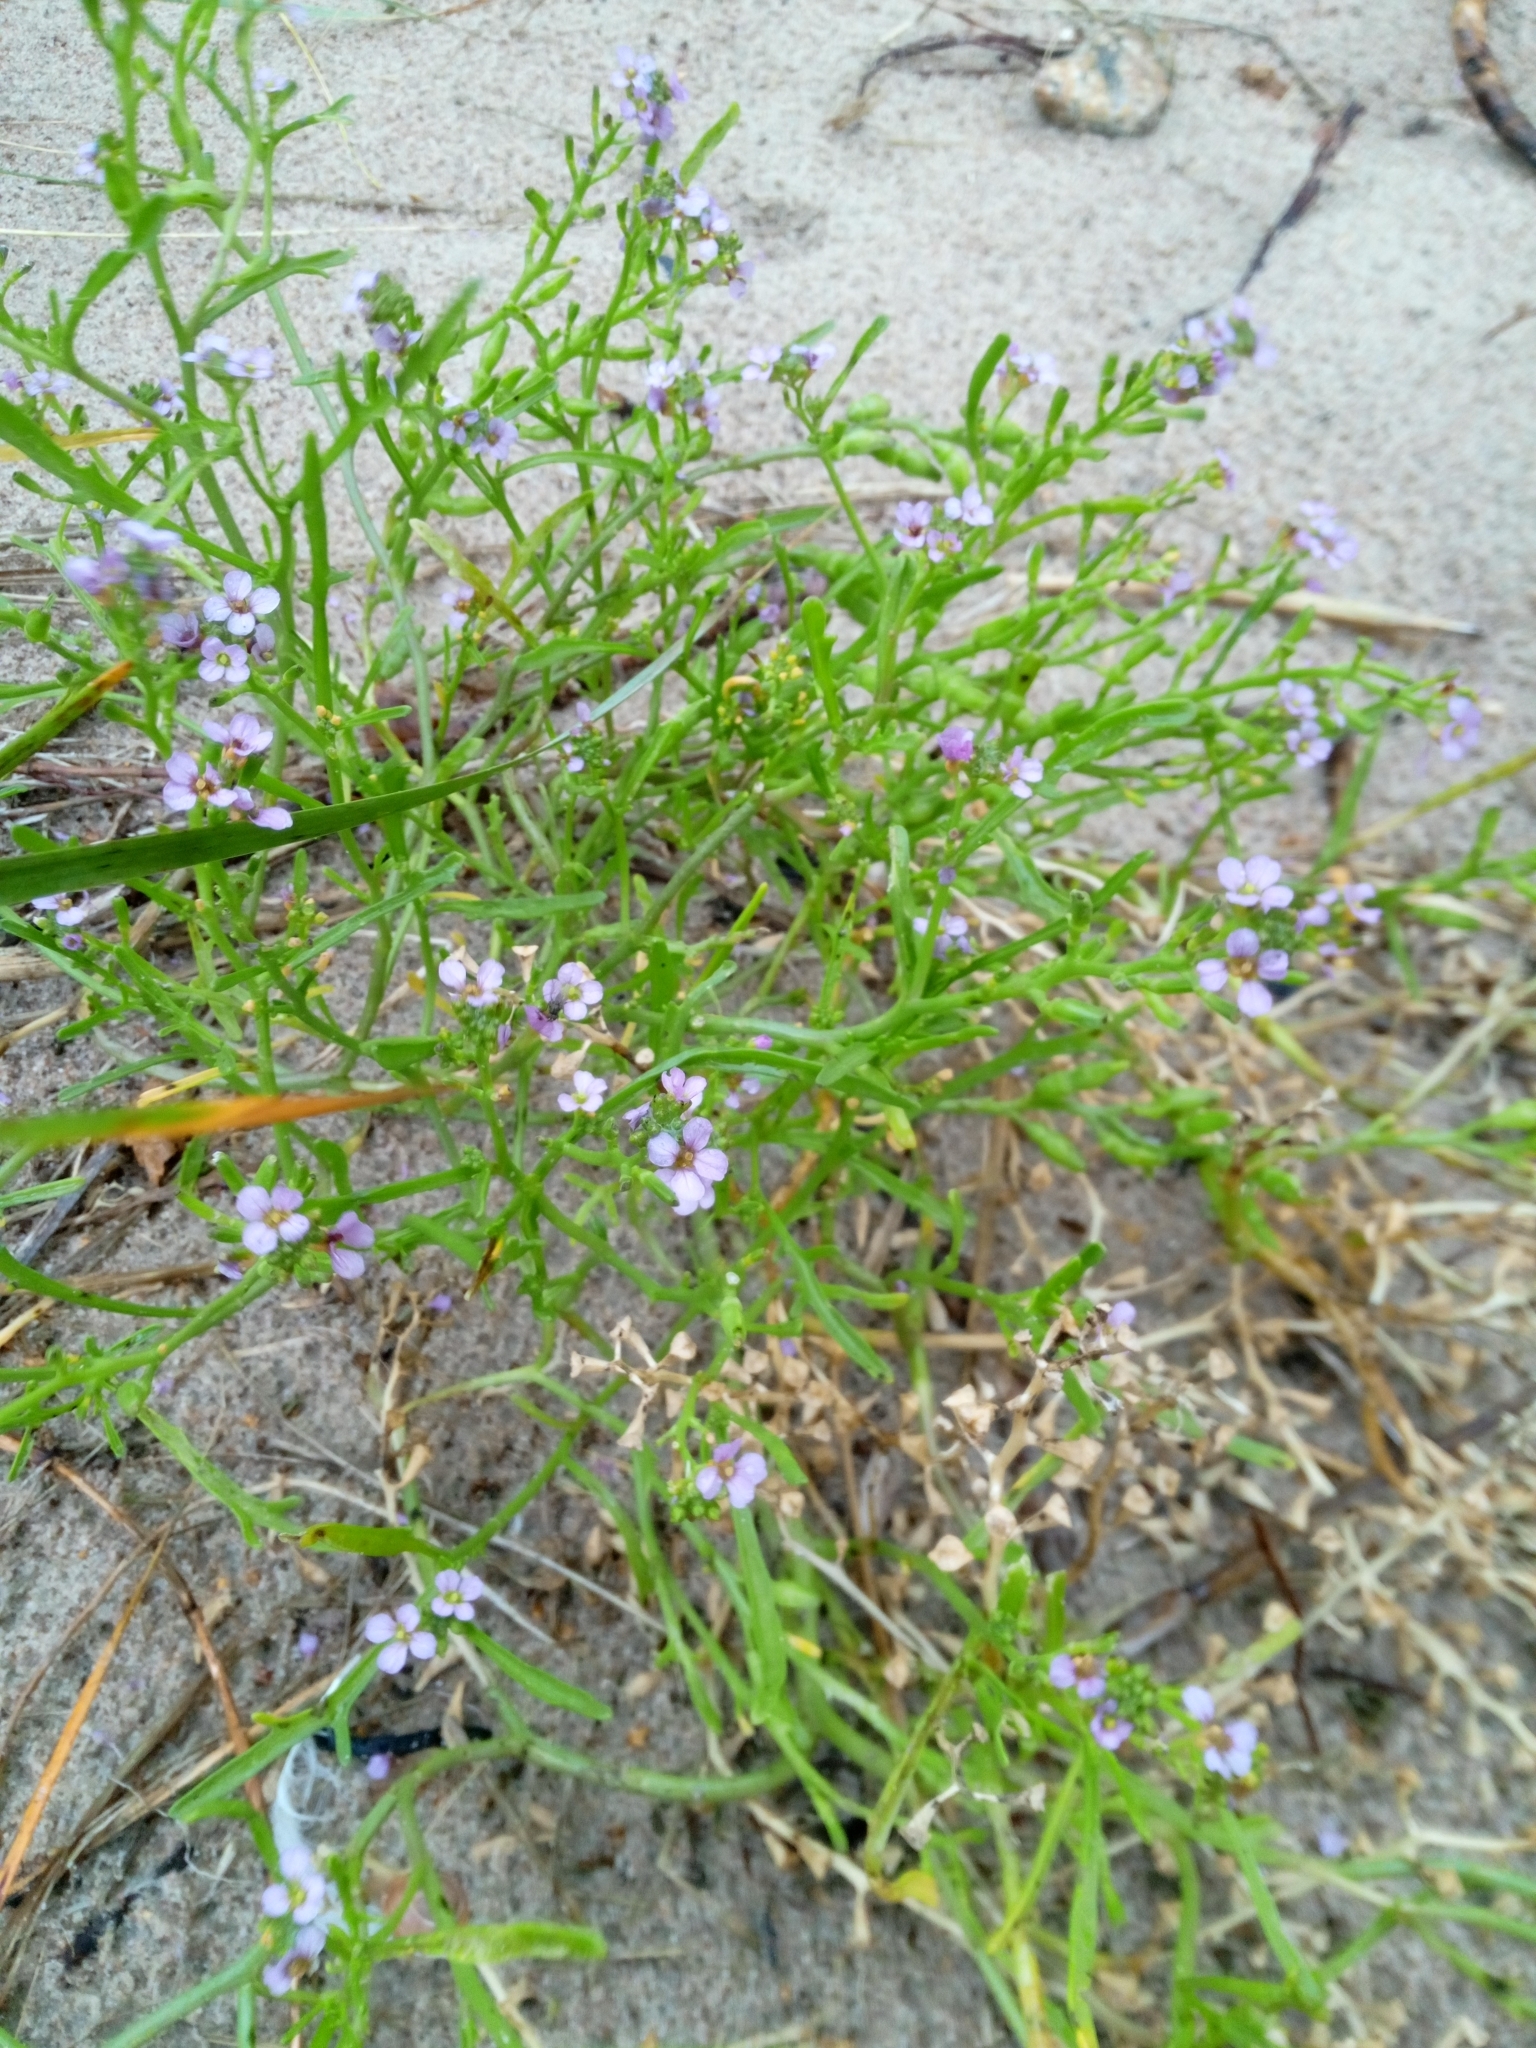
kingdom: Plantae
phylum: Tracheophyta
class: Magnoliopsida
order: Brassicales
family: Brassicaceae
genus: Cakile
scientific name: Cakile maritima
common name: Sea rocket
